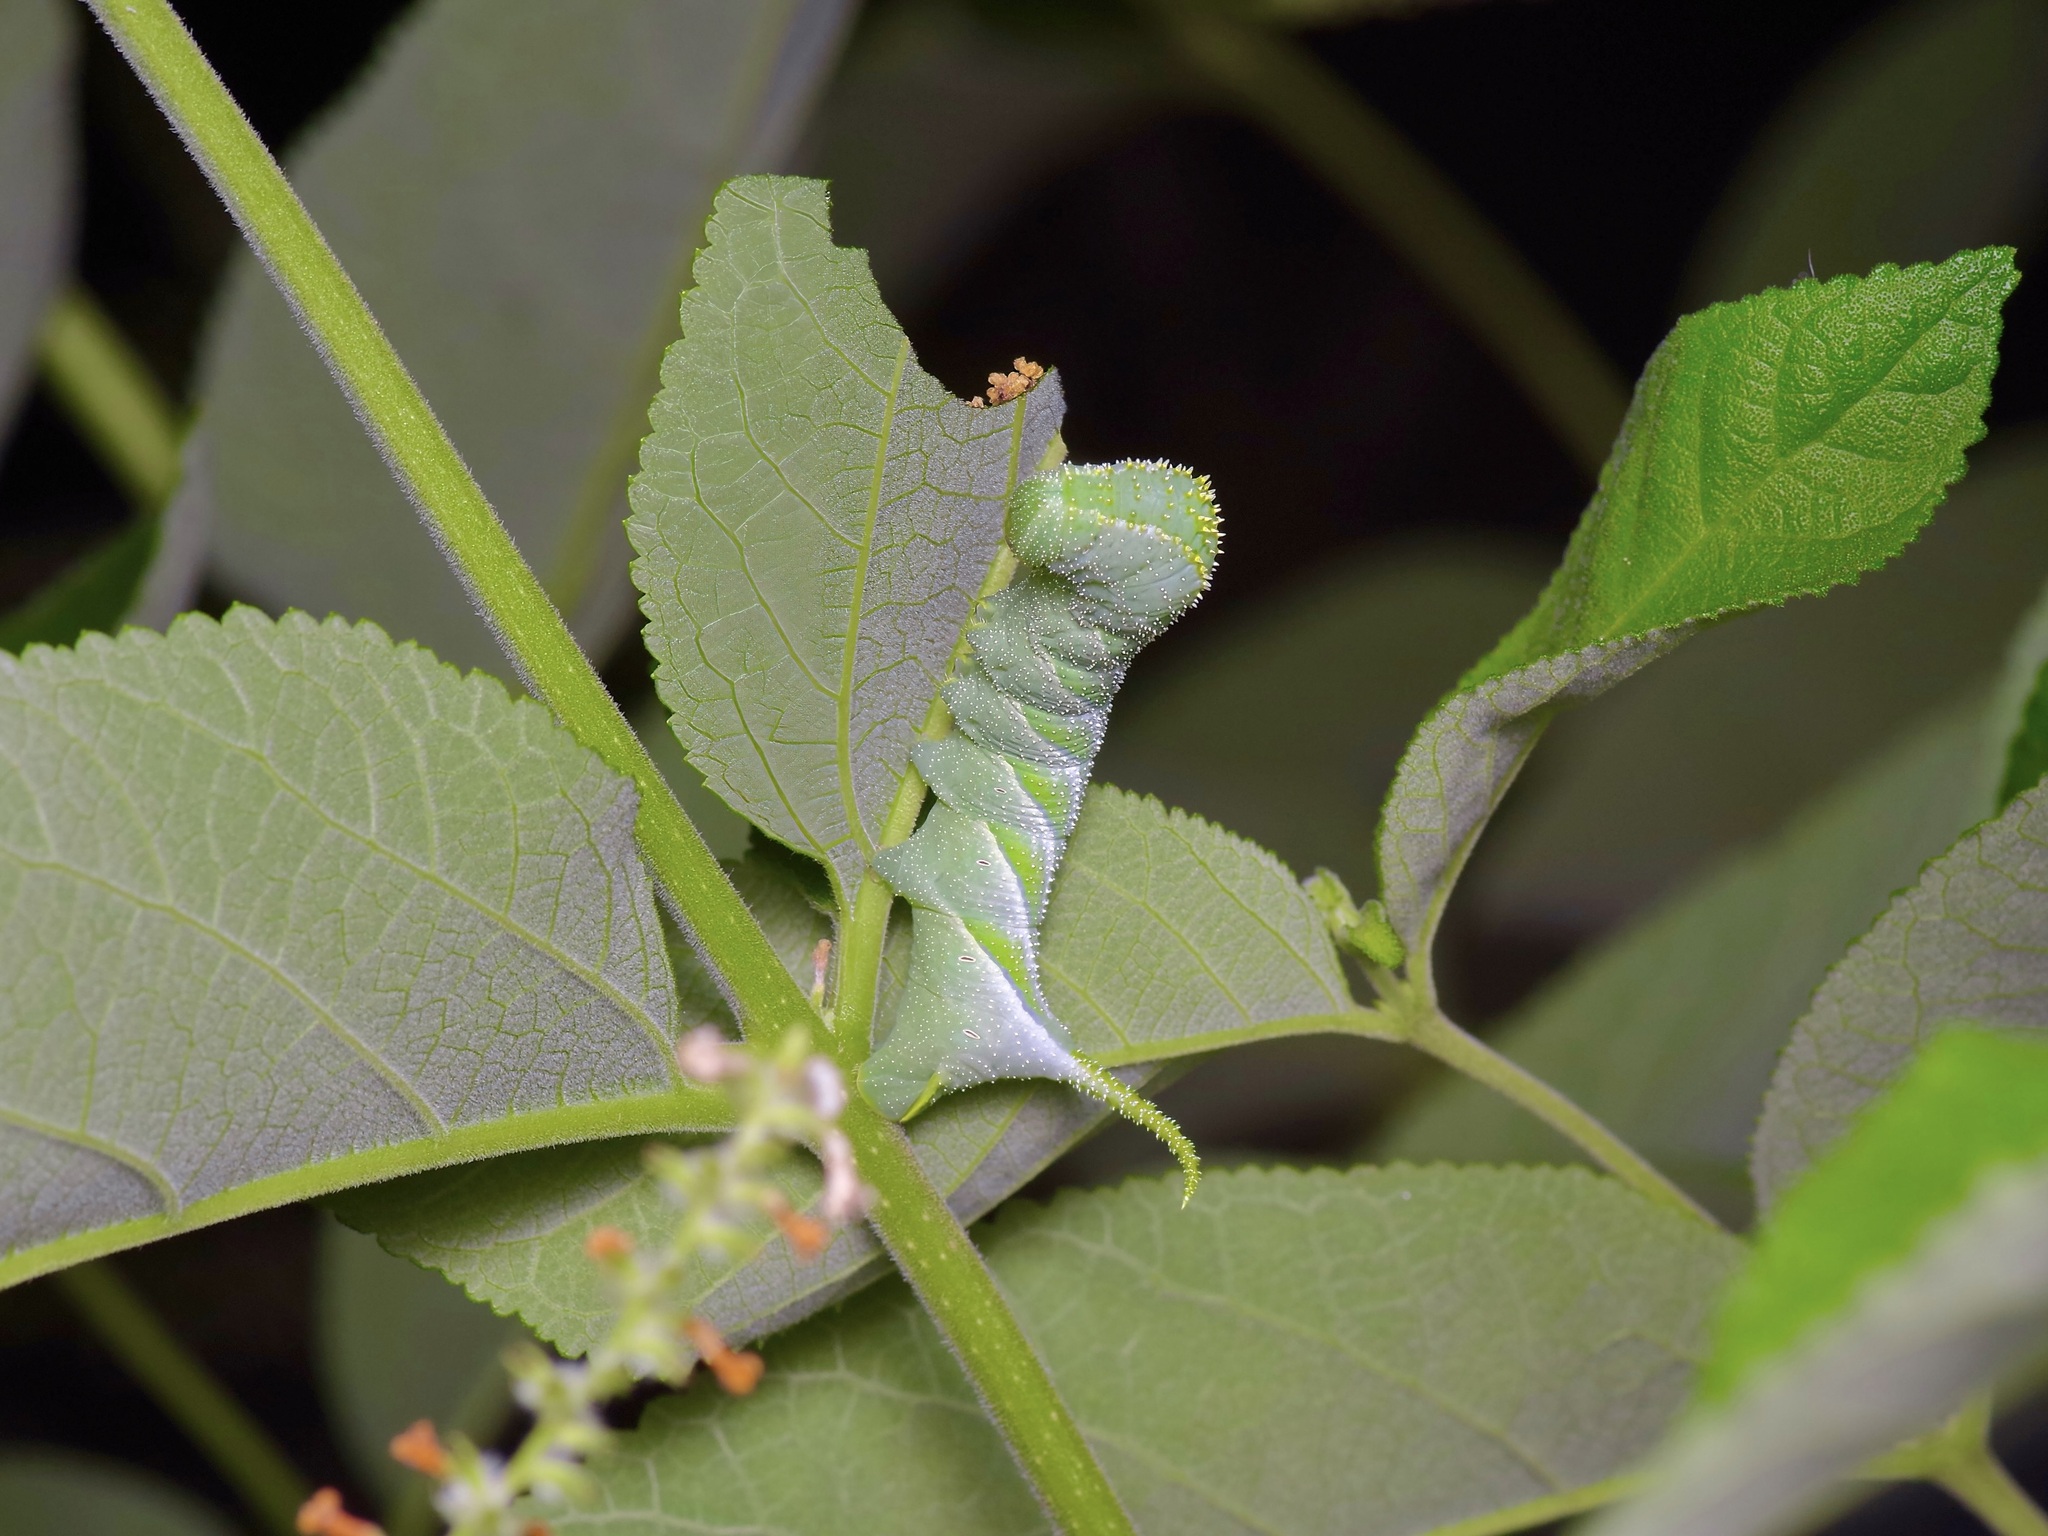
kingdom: Animalia
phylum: Arthropoda
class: Insecta
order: Lepidoptera
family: Sphingidae
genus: Manduca
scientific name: Manduca rustica
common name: Rustic sphinx
